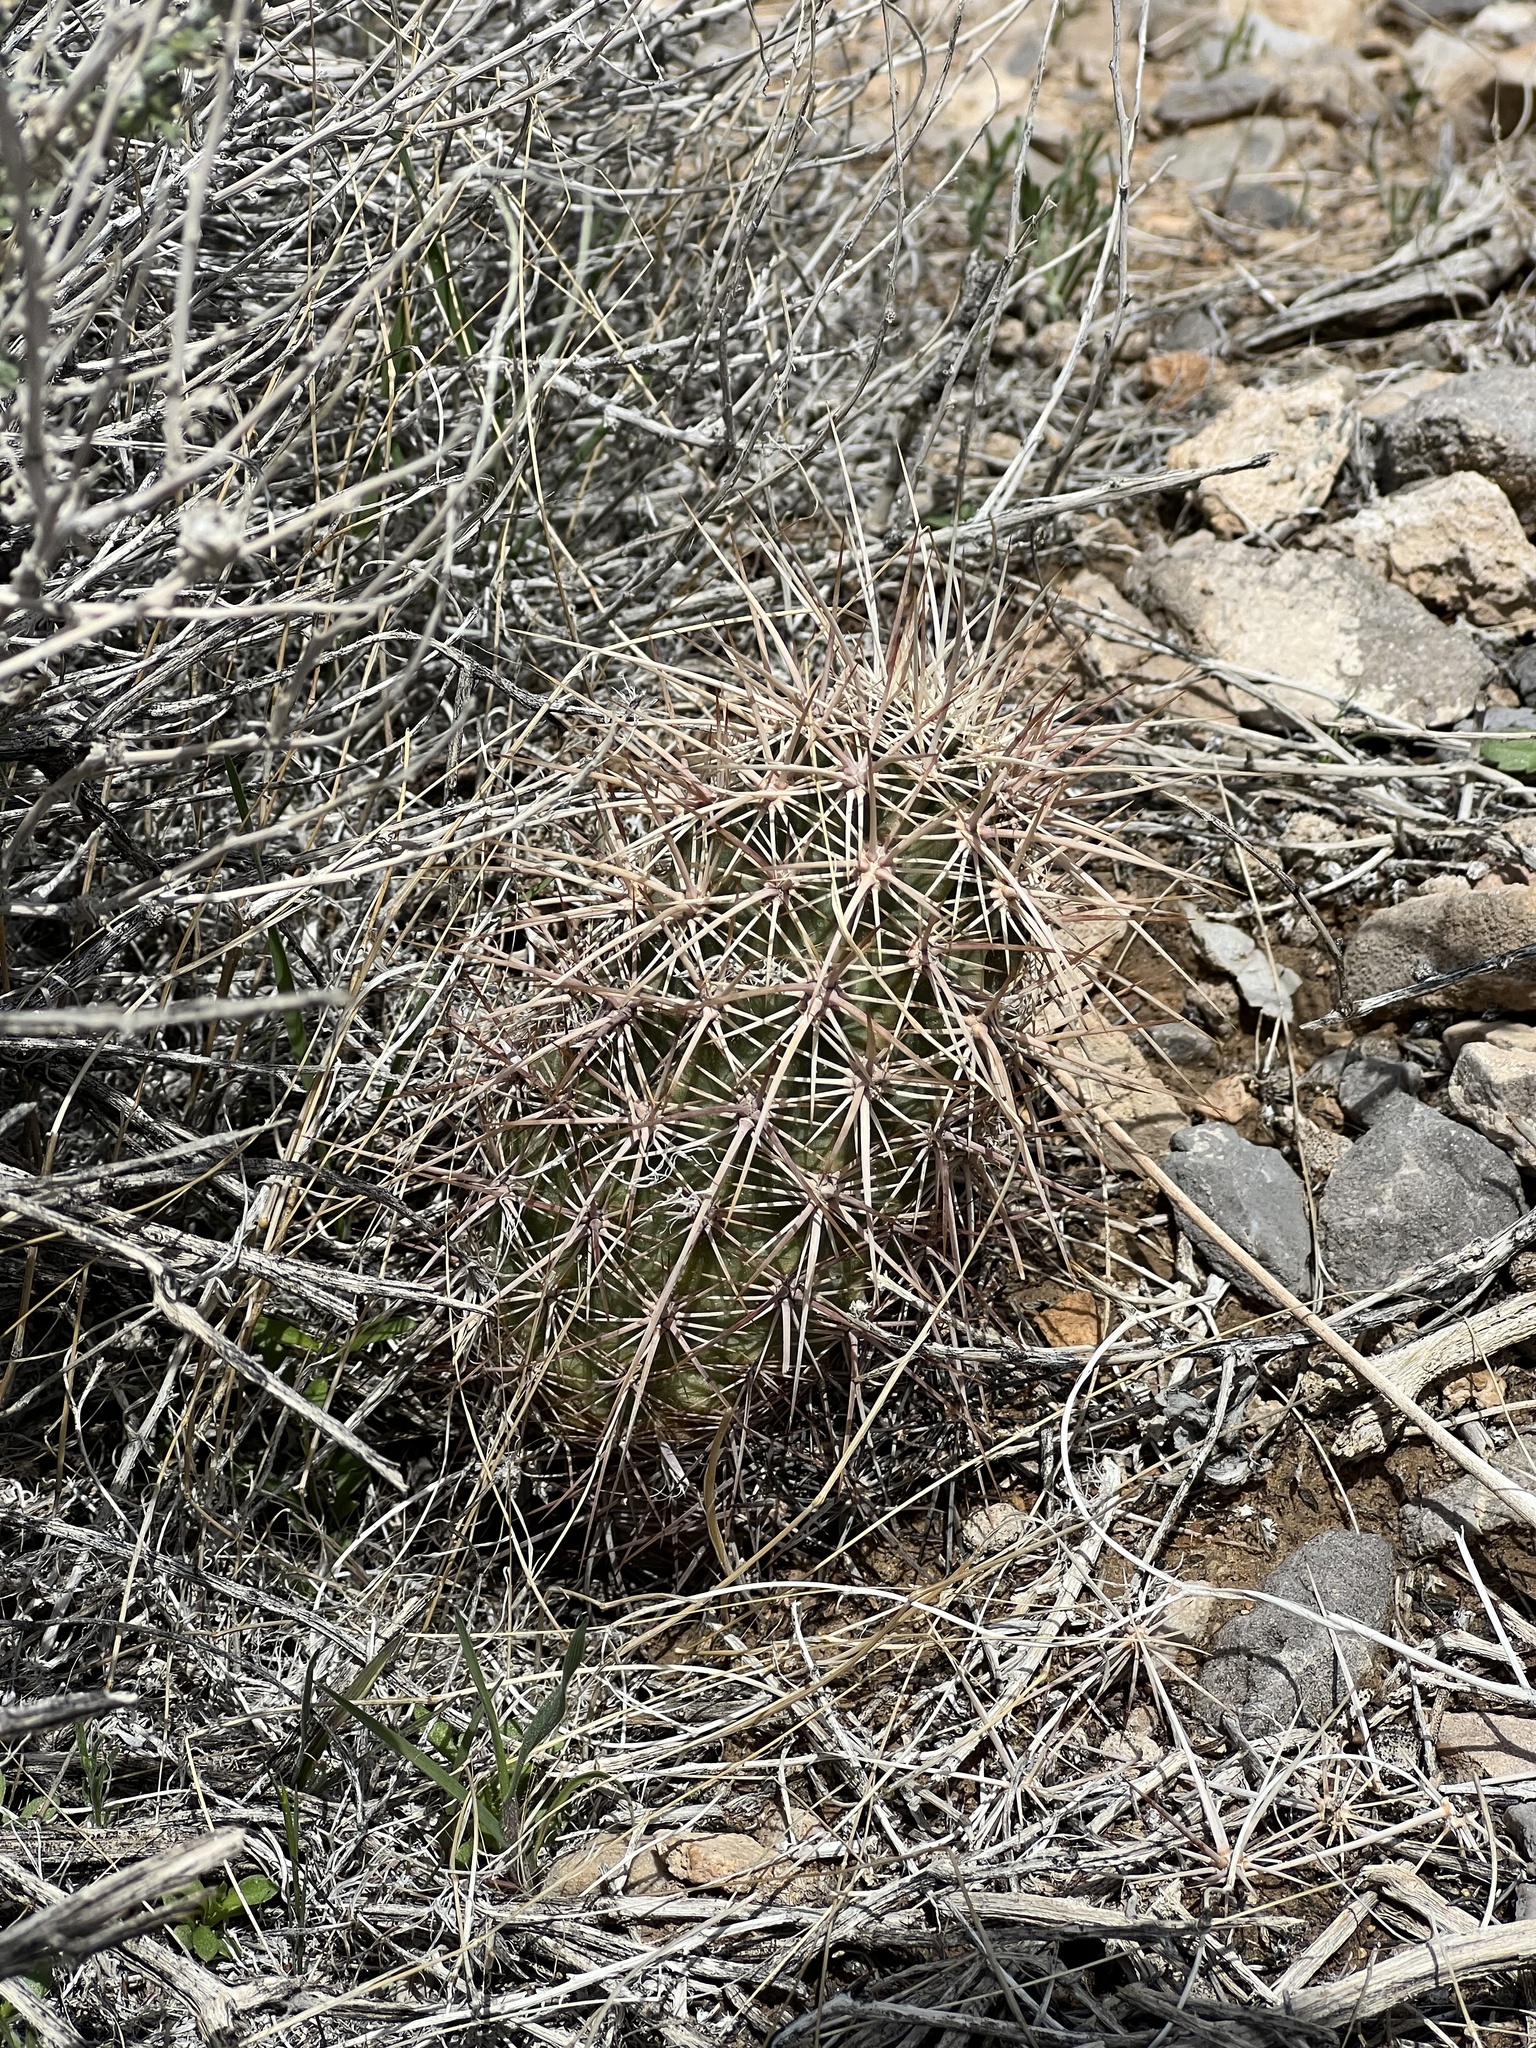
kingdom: Plantae
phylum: Tracheophyta
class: Magnoliopsida
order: Caryophyllales
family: Cactaceae
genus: Echinocereus
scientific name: Echinocereus engelmannii
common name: Engelmann's hedgehog cactus
